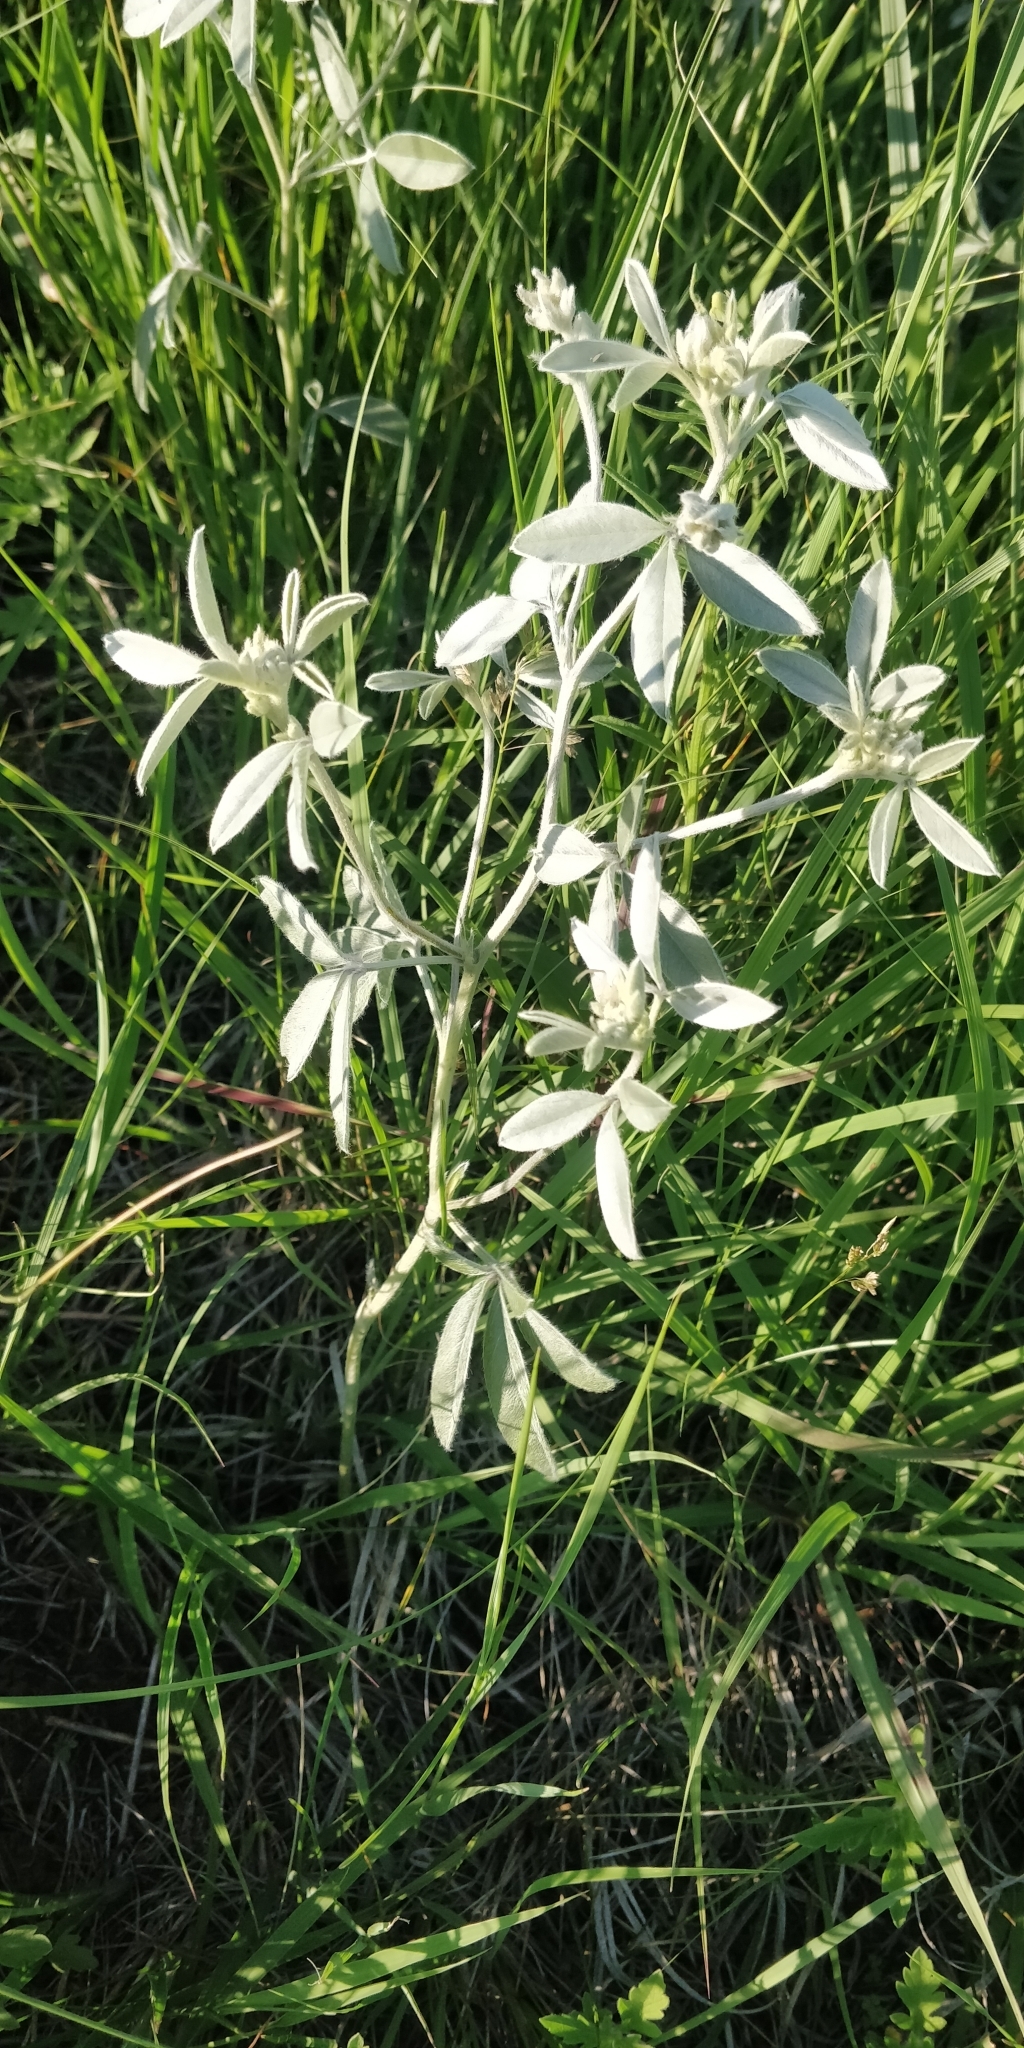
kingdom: Plantae
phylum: Tracheophyta
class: Magnoliopsida
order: Fabales
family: Fabaceae
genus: Pediomelum
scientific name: Pediomelum argophyllum
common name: Silver-leaved indian breadroot
